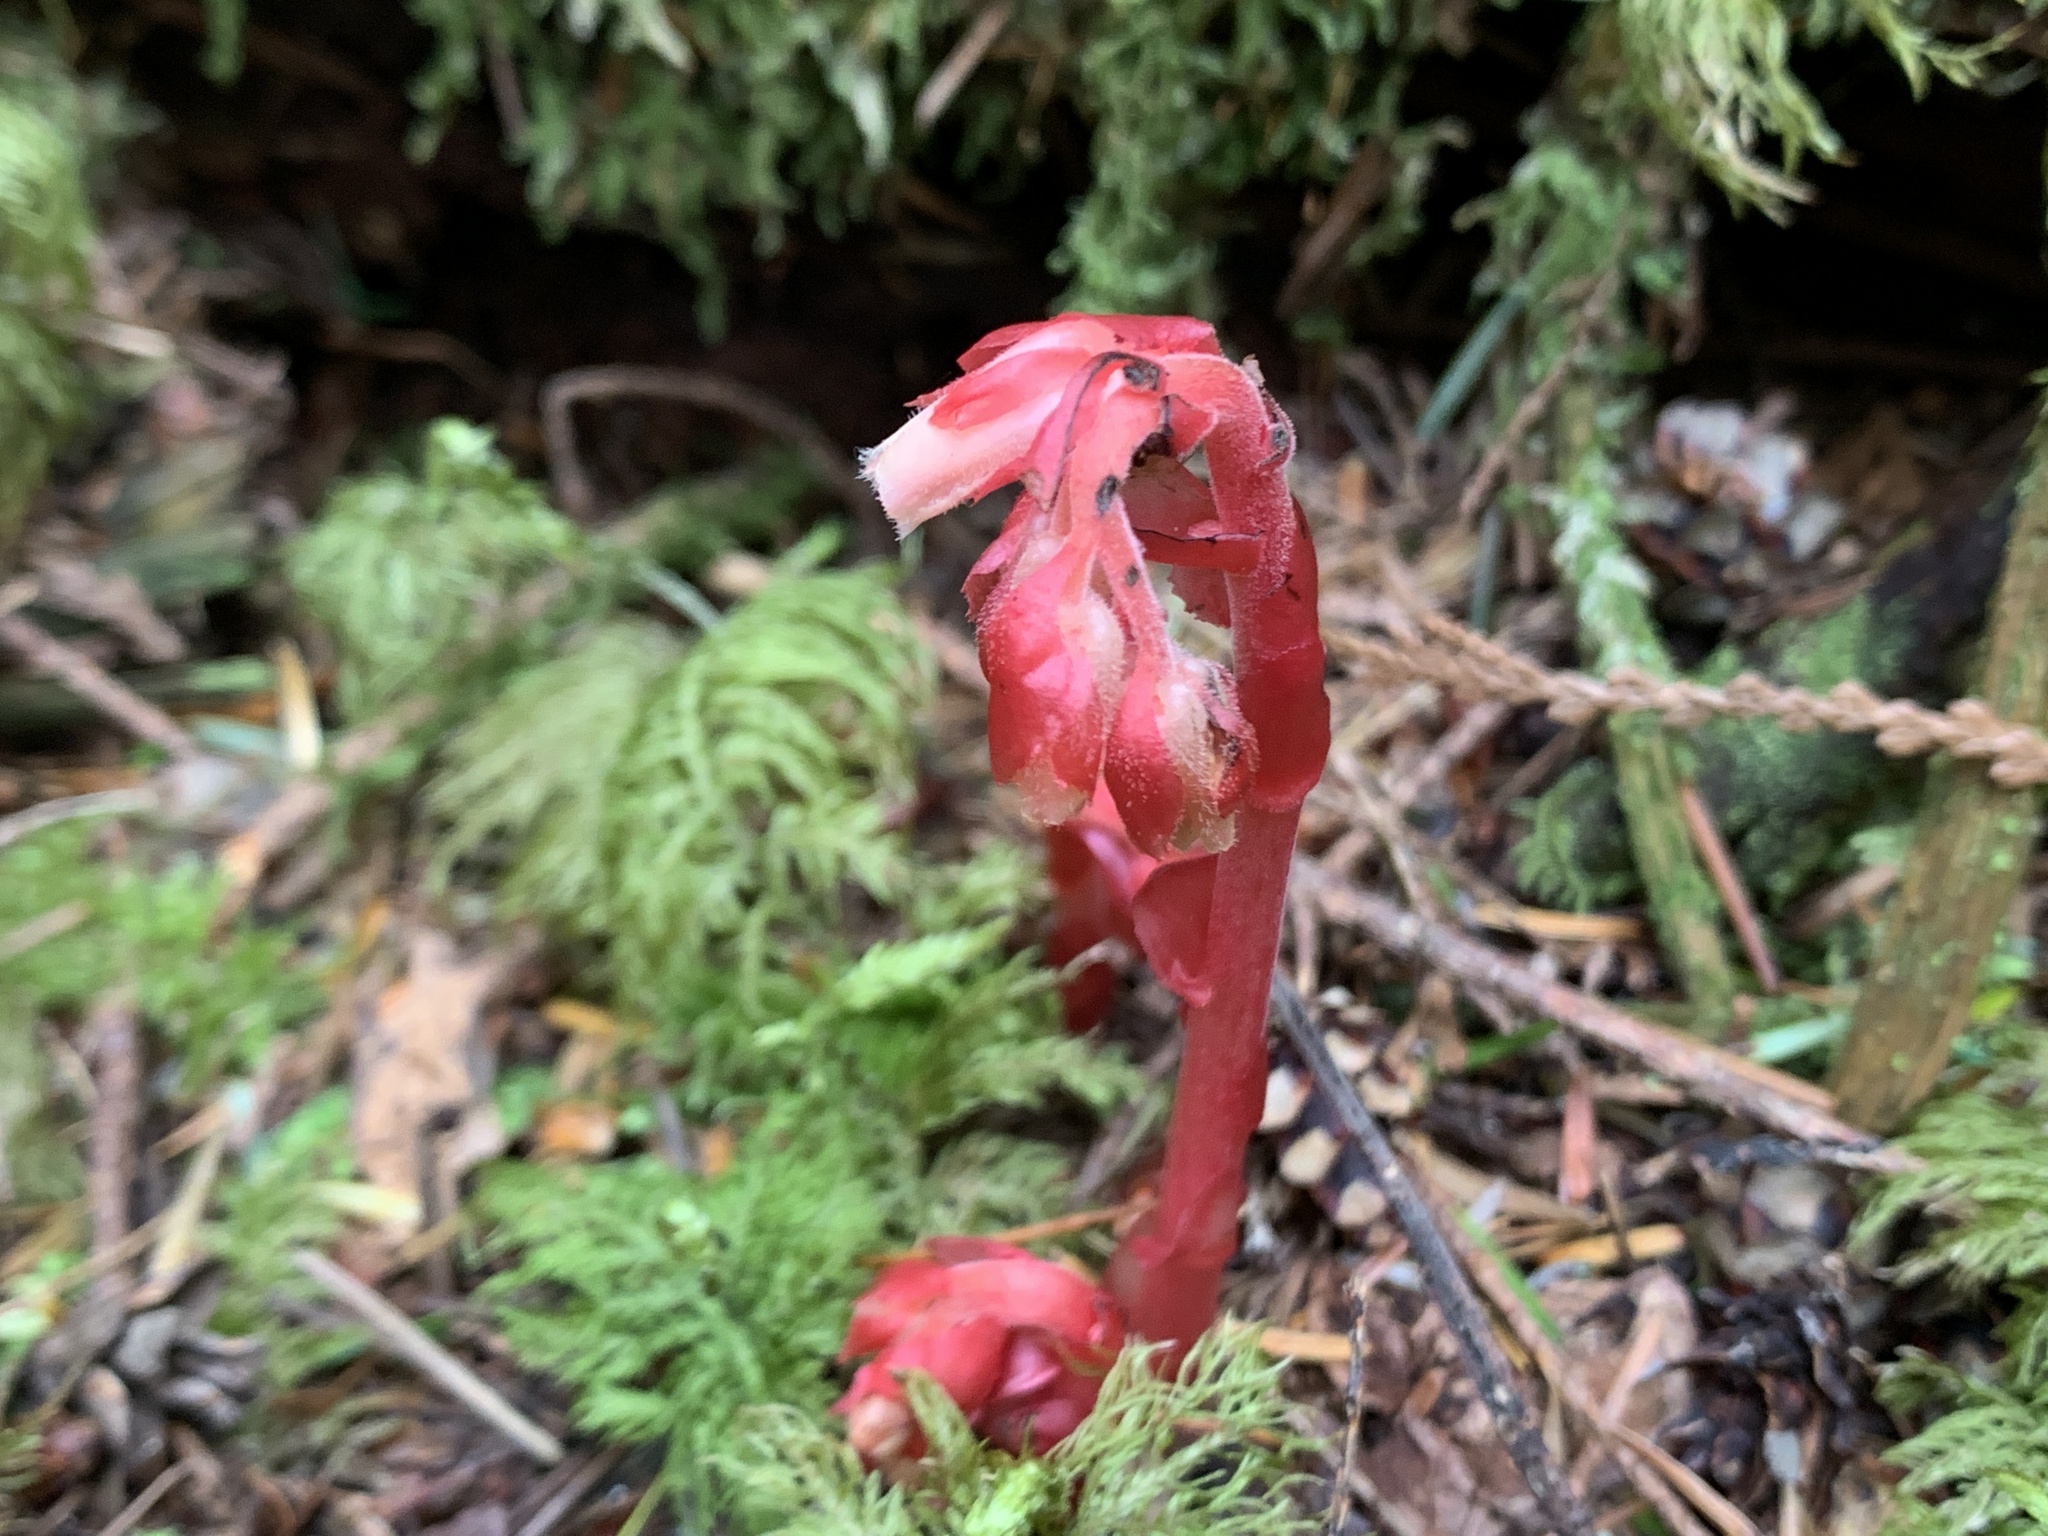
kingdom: Plantae
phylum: Tracheophyta
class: Magnoliopsida
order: Ericales
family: Ericaceae
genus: Hypopitys
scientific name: Hypopitys monotropa
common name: Yellow bird's-nest
